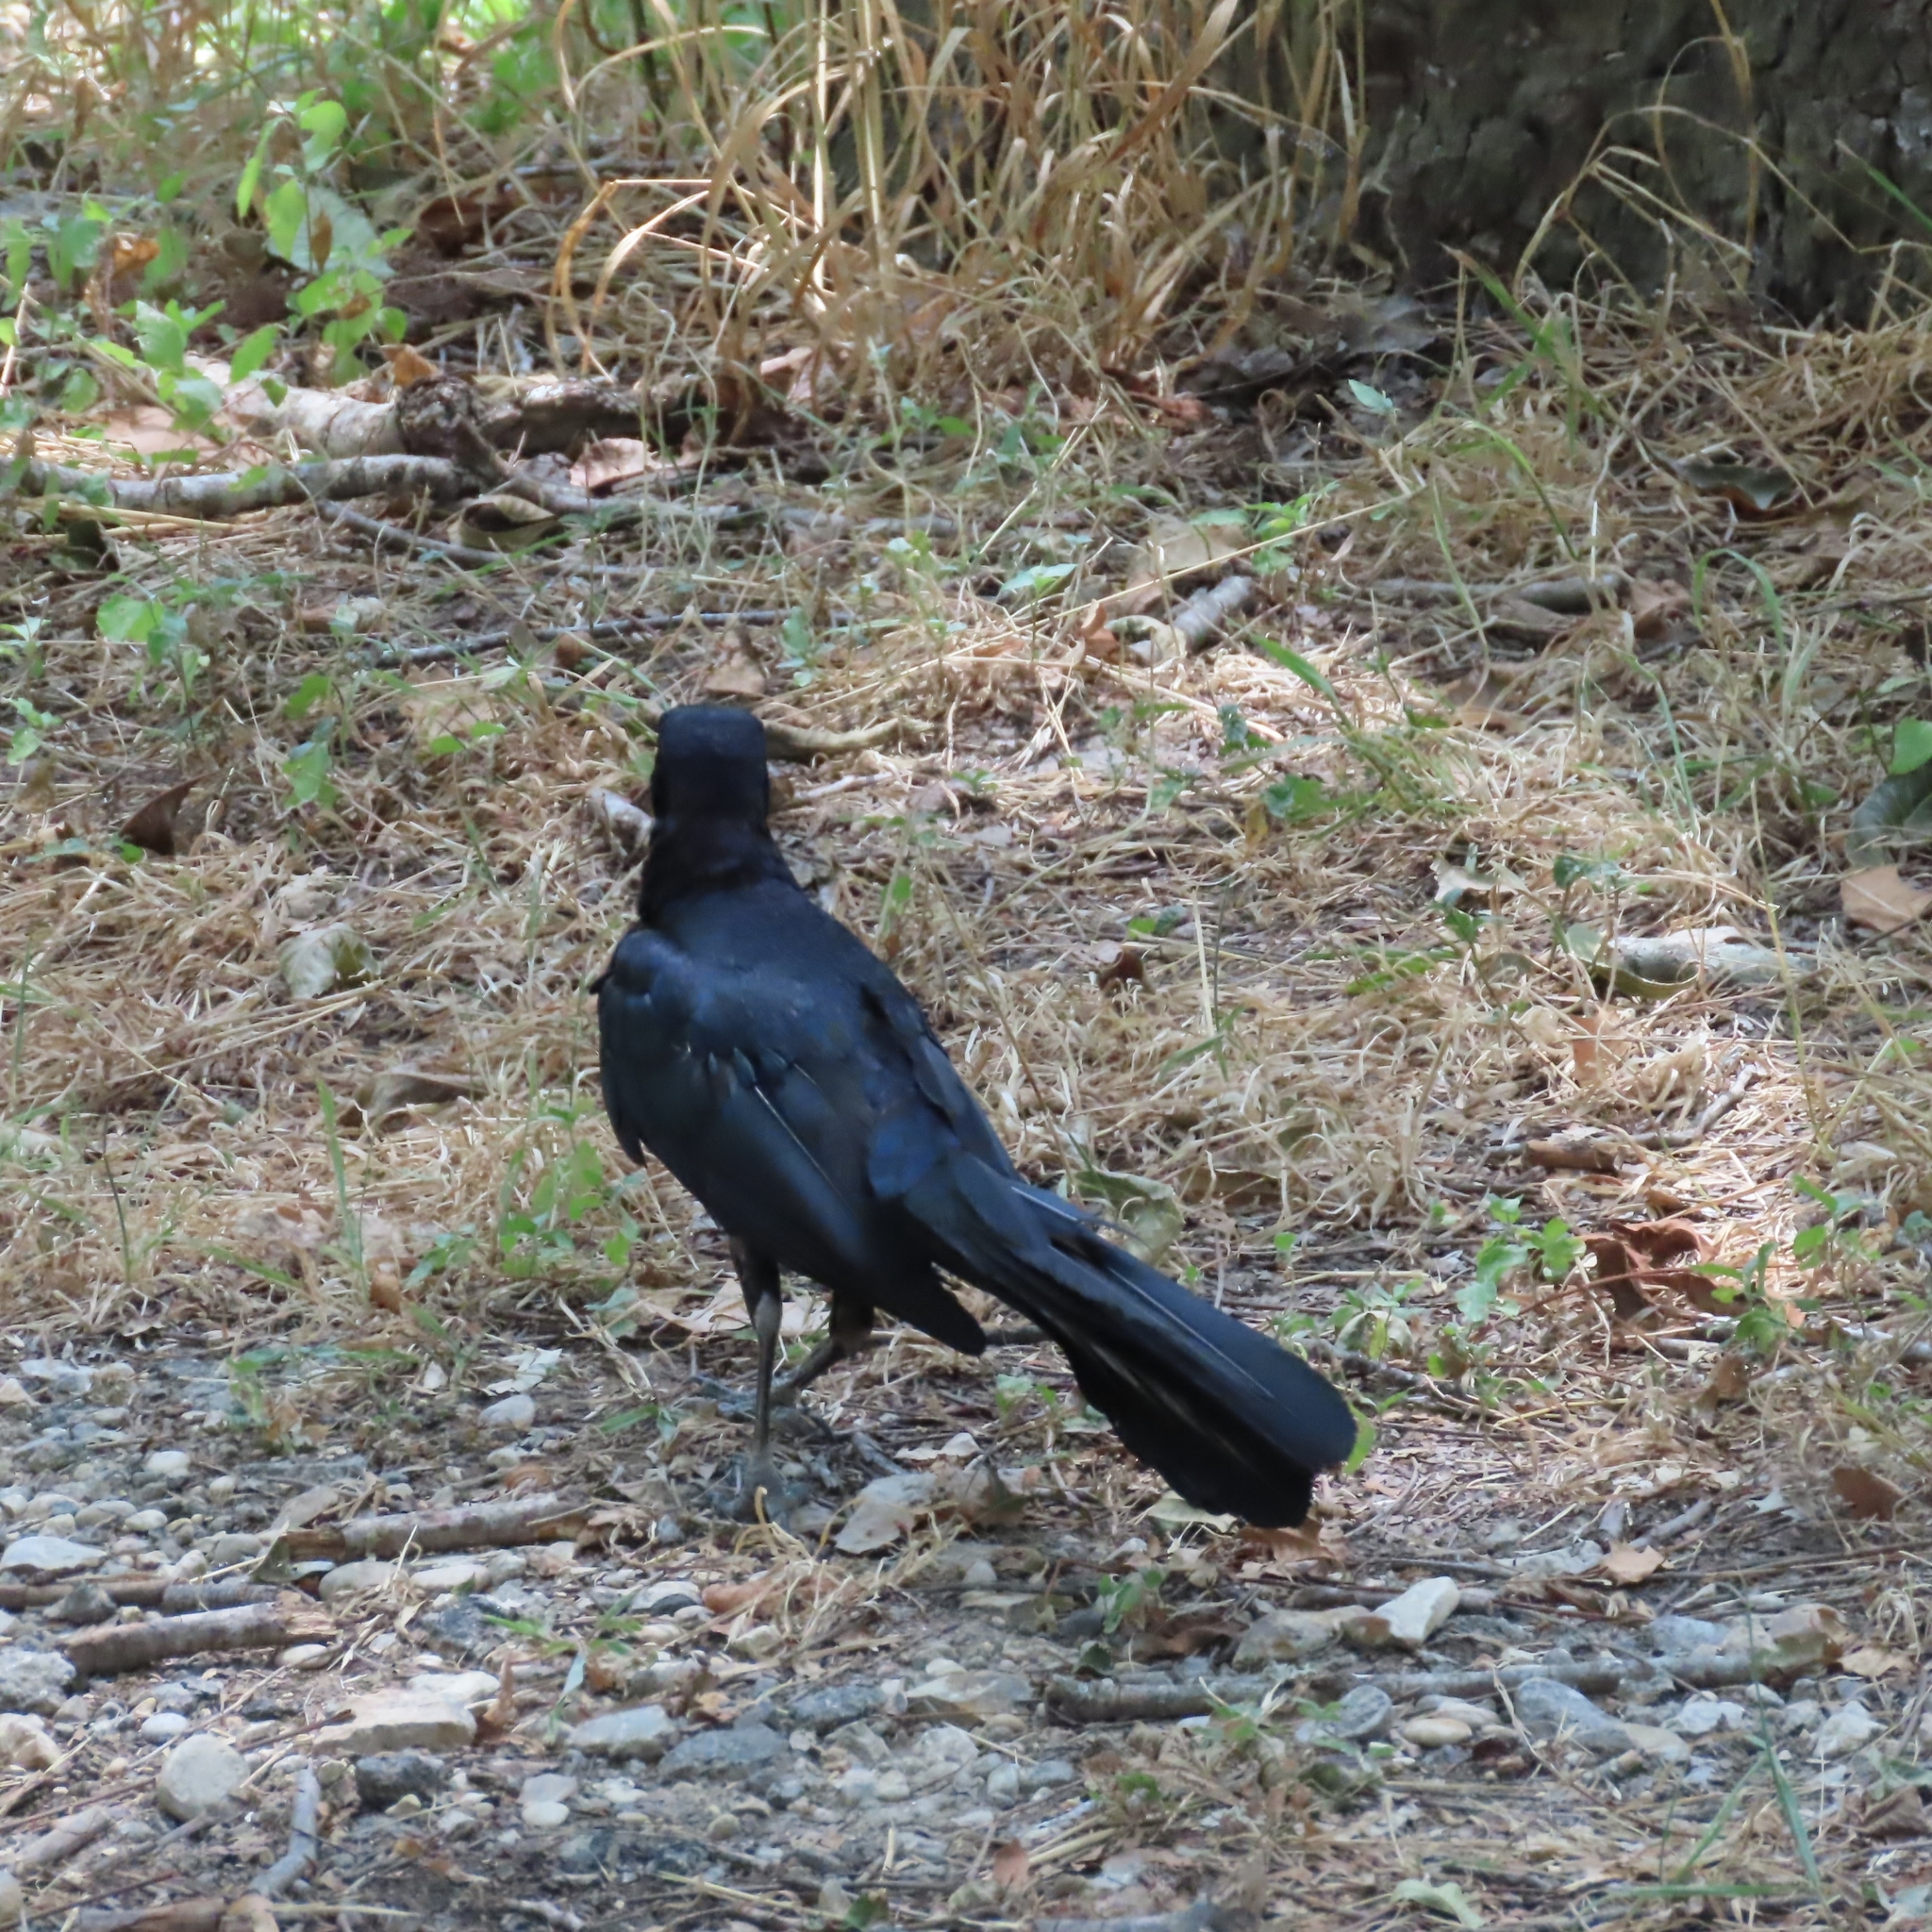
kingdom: Animalia
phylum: Chordata
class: Aves
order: Passeriformes
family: Icteridae
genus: Quiscalus
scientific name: Quiscalus mexicanus
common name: Great-tailed grackle
